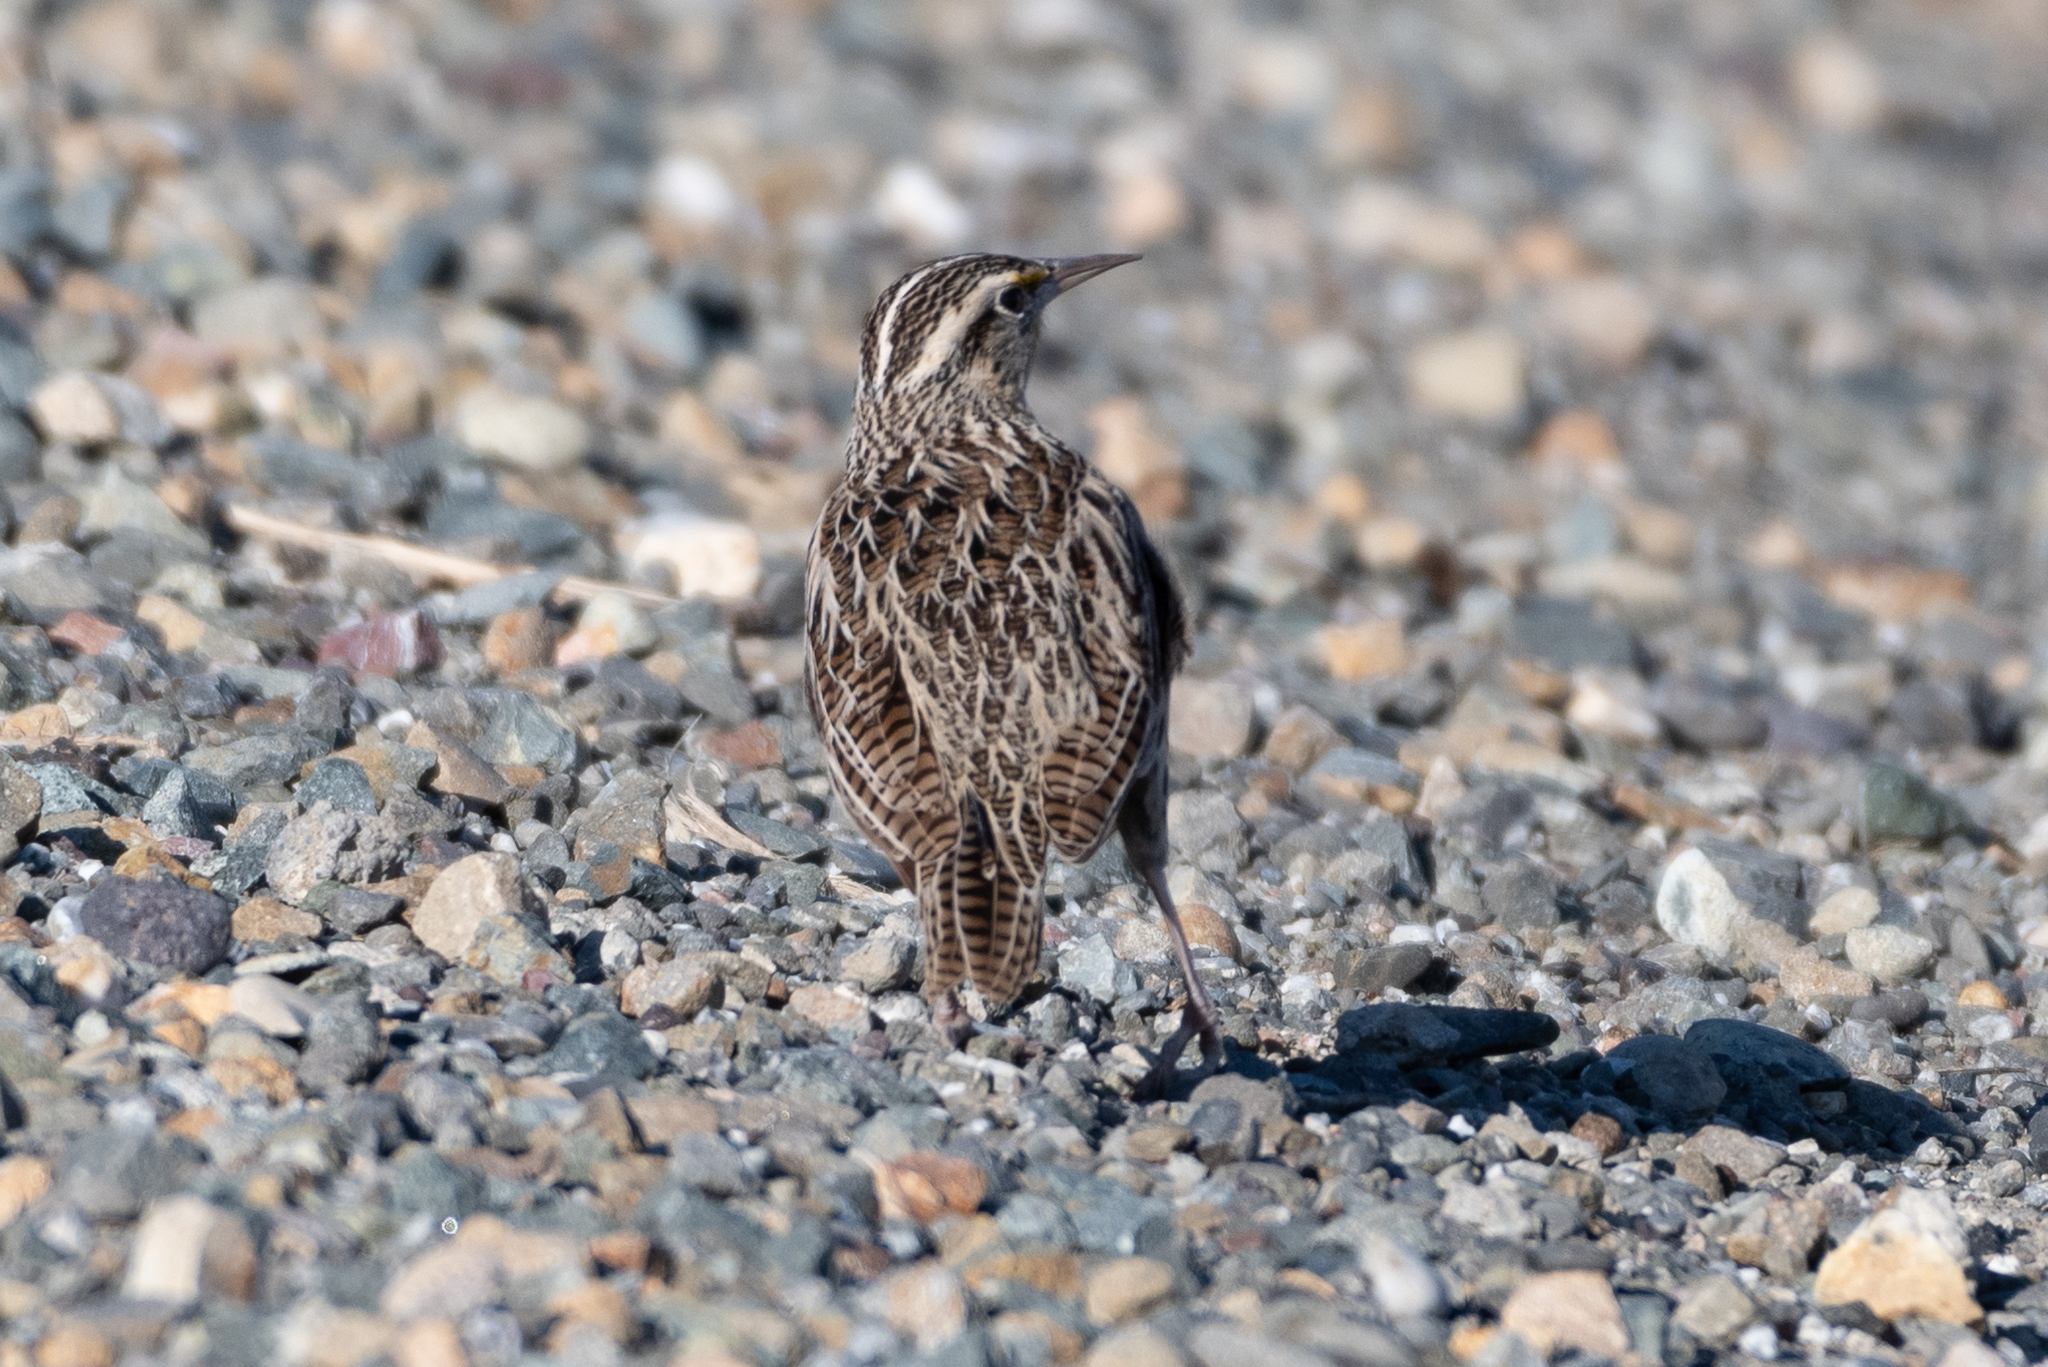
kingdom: Animalia
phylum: Chordata
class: Aves
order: Passeriformes
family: Icteridae
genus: Sturnella
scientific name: Sturnella neglecta
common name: Western meadowlark
